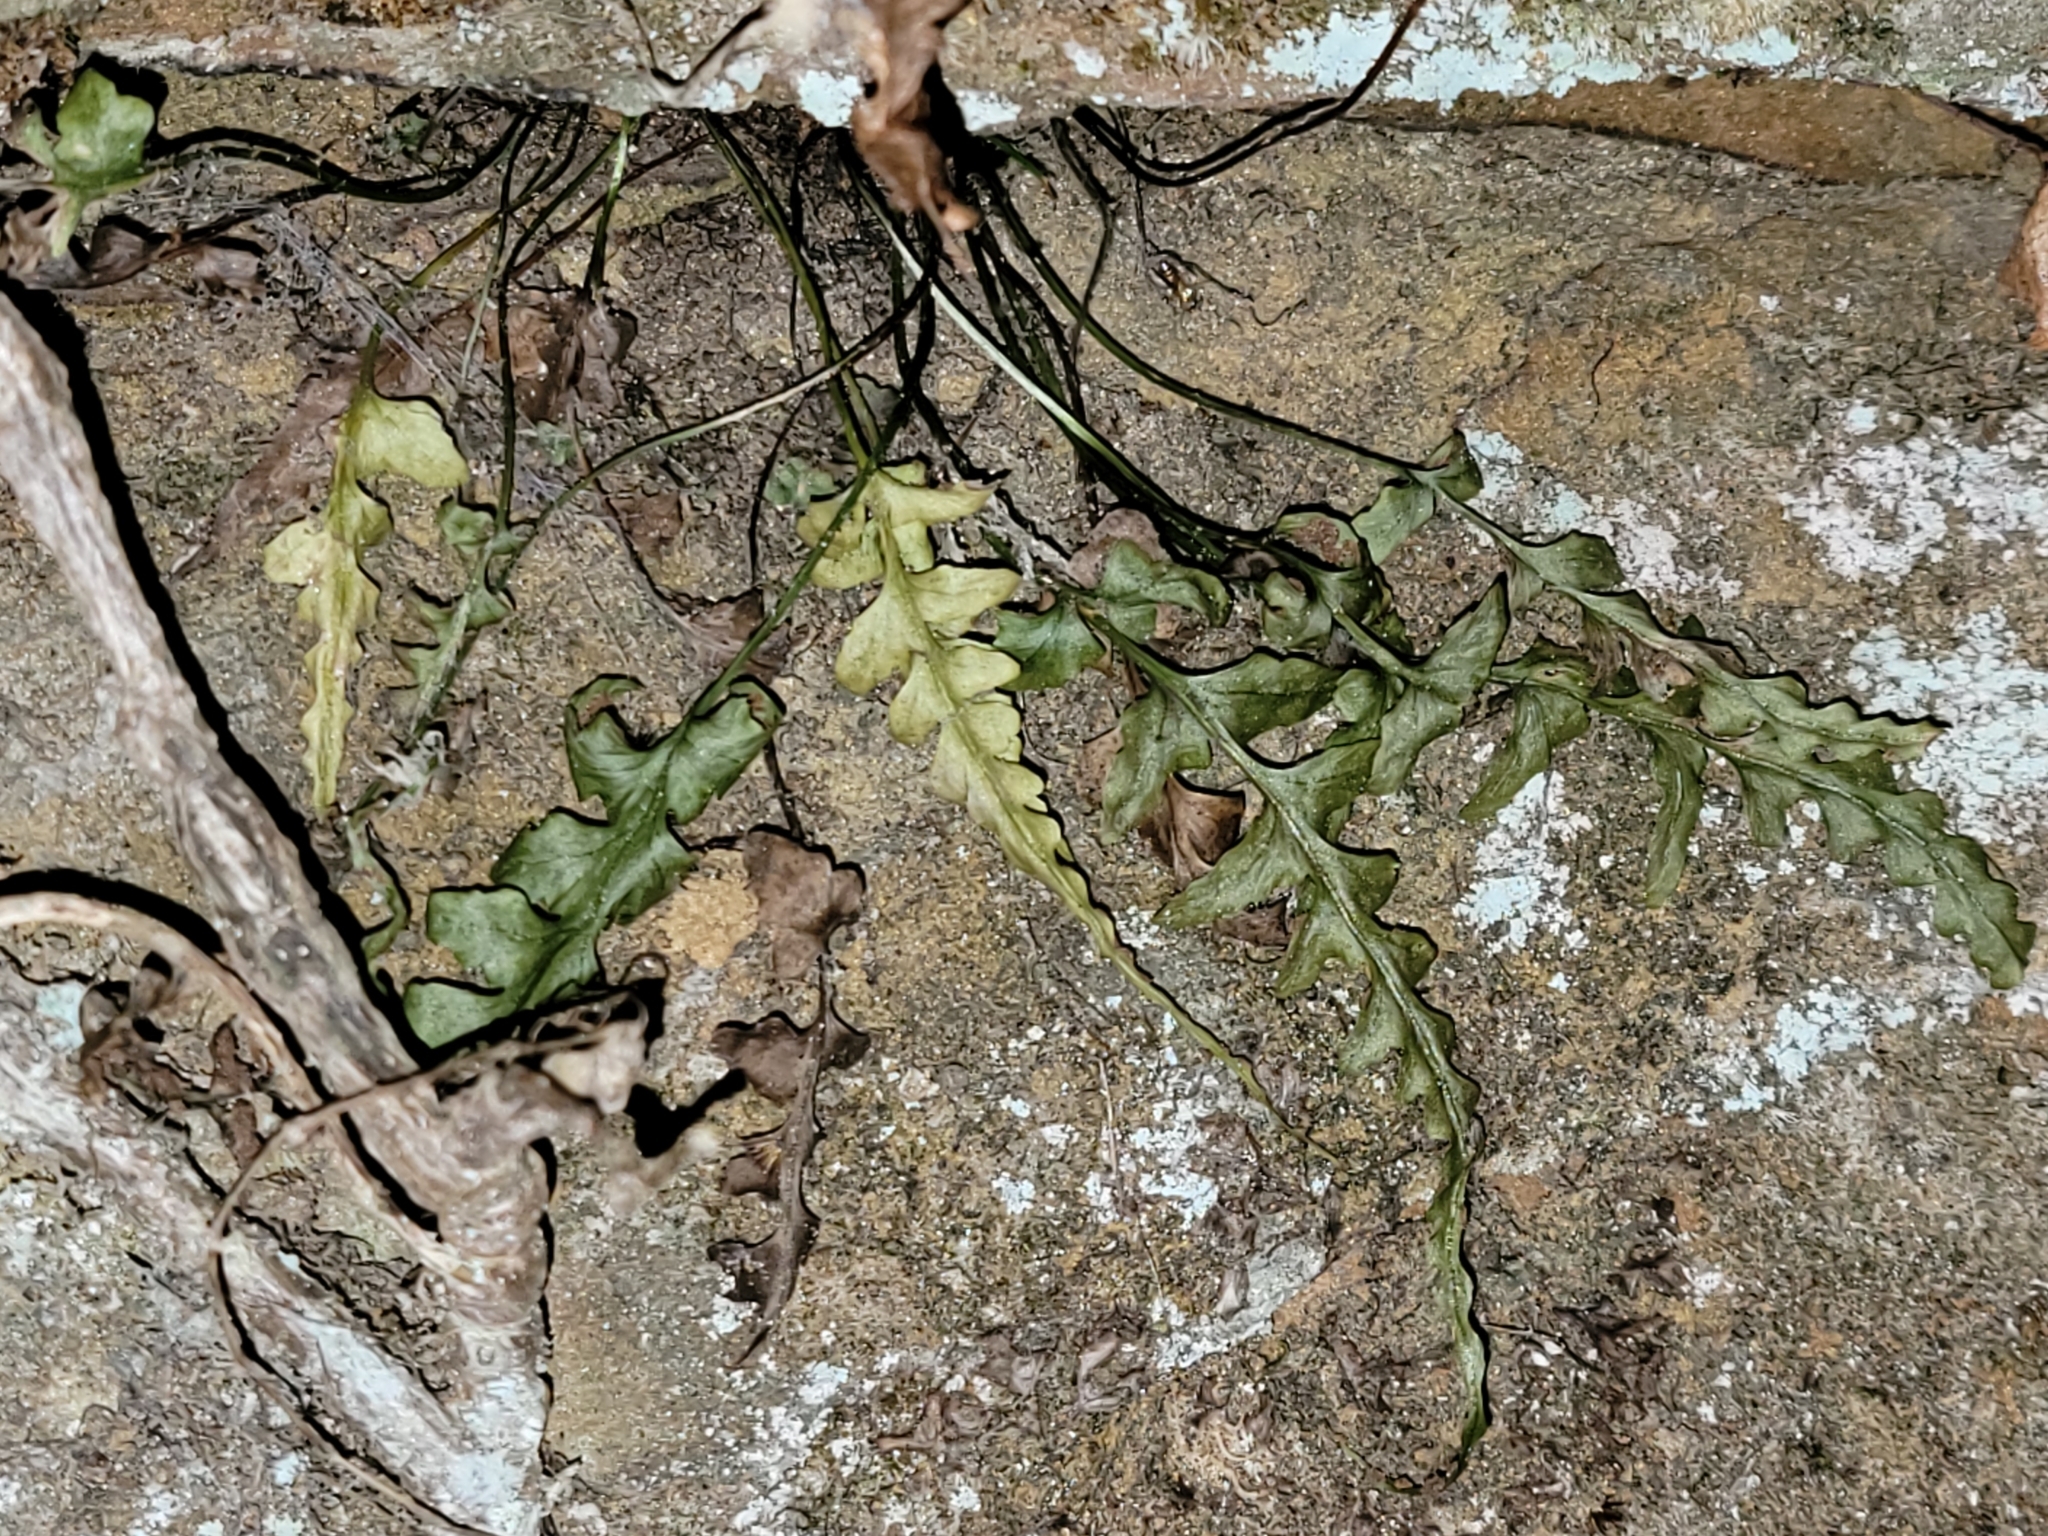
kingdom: Plantae
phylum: Tracheophyta
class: Polypodiopsida
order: Polypodiales
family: Aspleniaceae
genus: Asplenium
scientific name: Asplenium pinnatifidum
